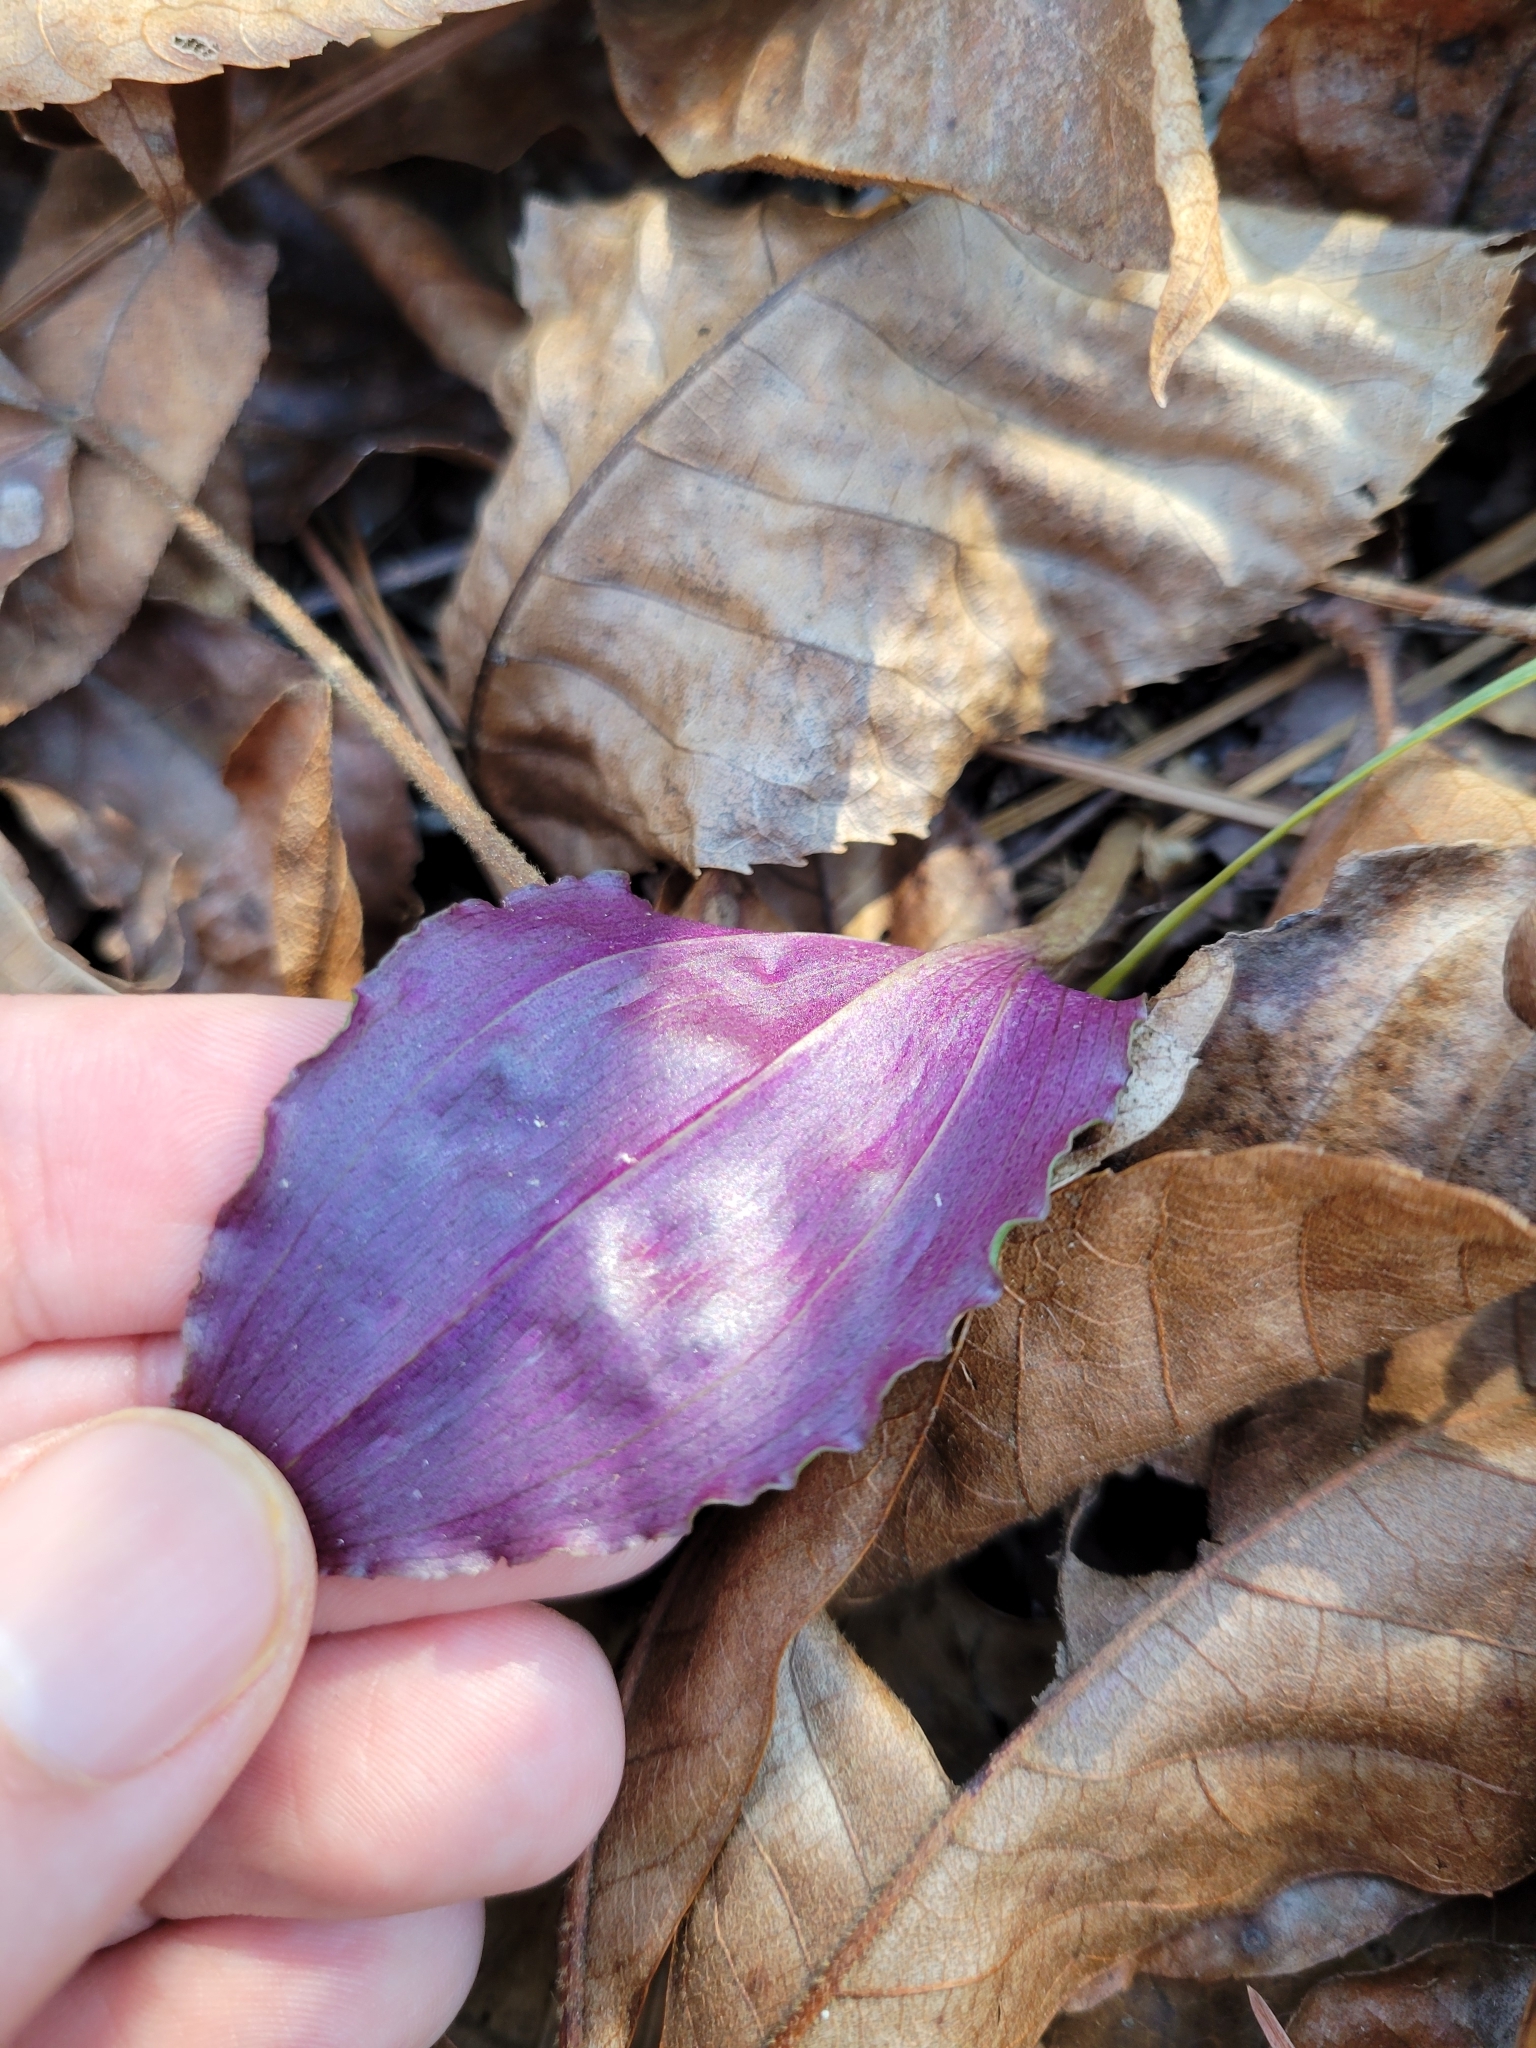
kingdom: Plantae
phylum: Tracheophyta
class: Liliopsida
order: Asparagales
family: Orchidaceae
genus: Tipularia
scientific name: Tipularia discolor
